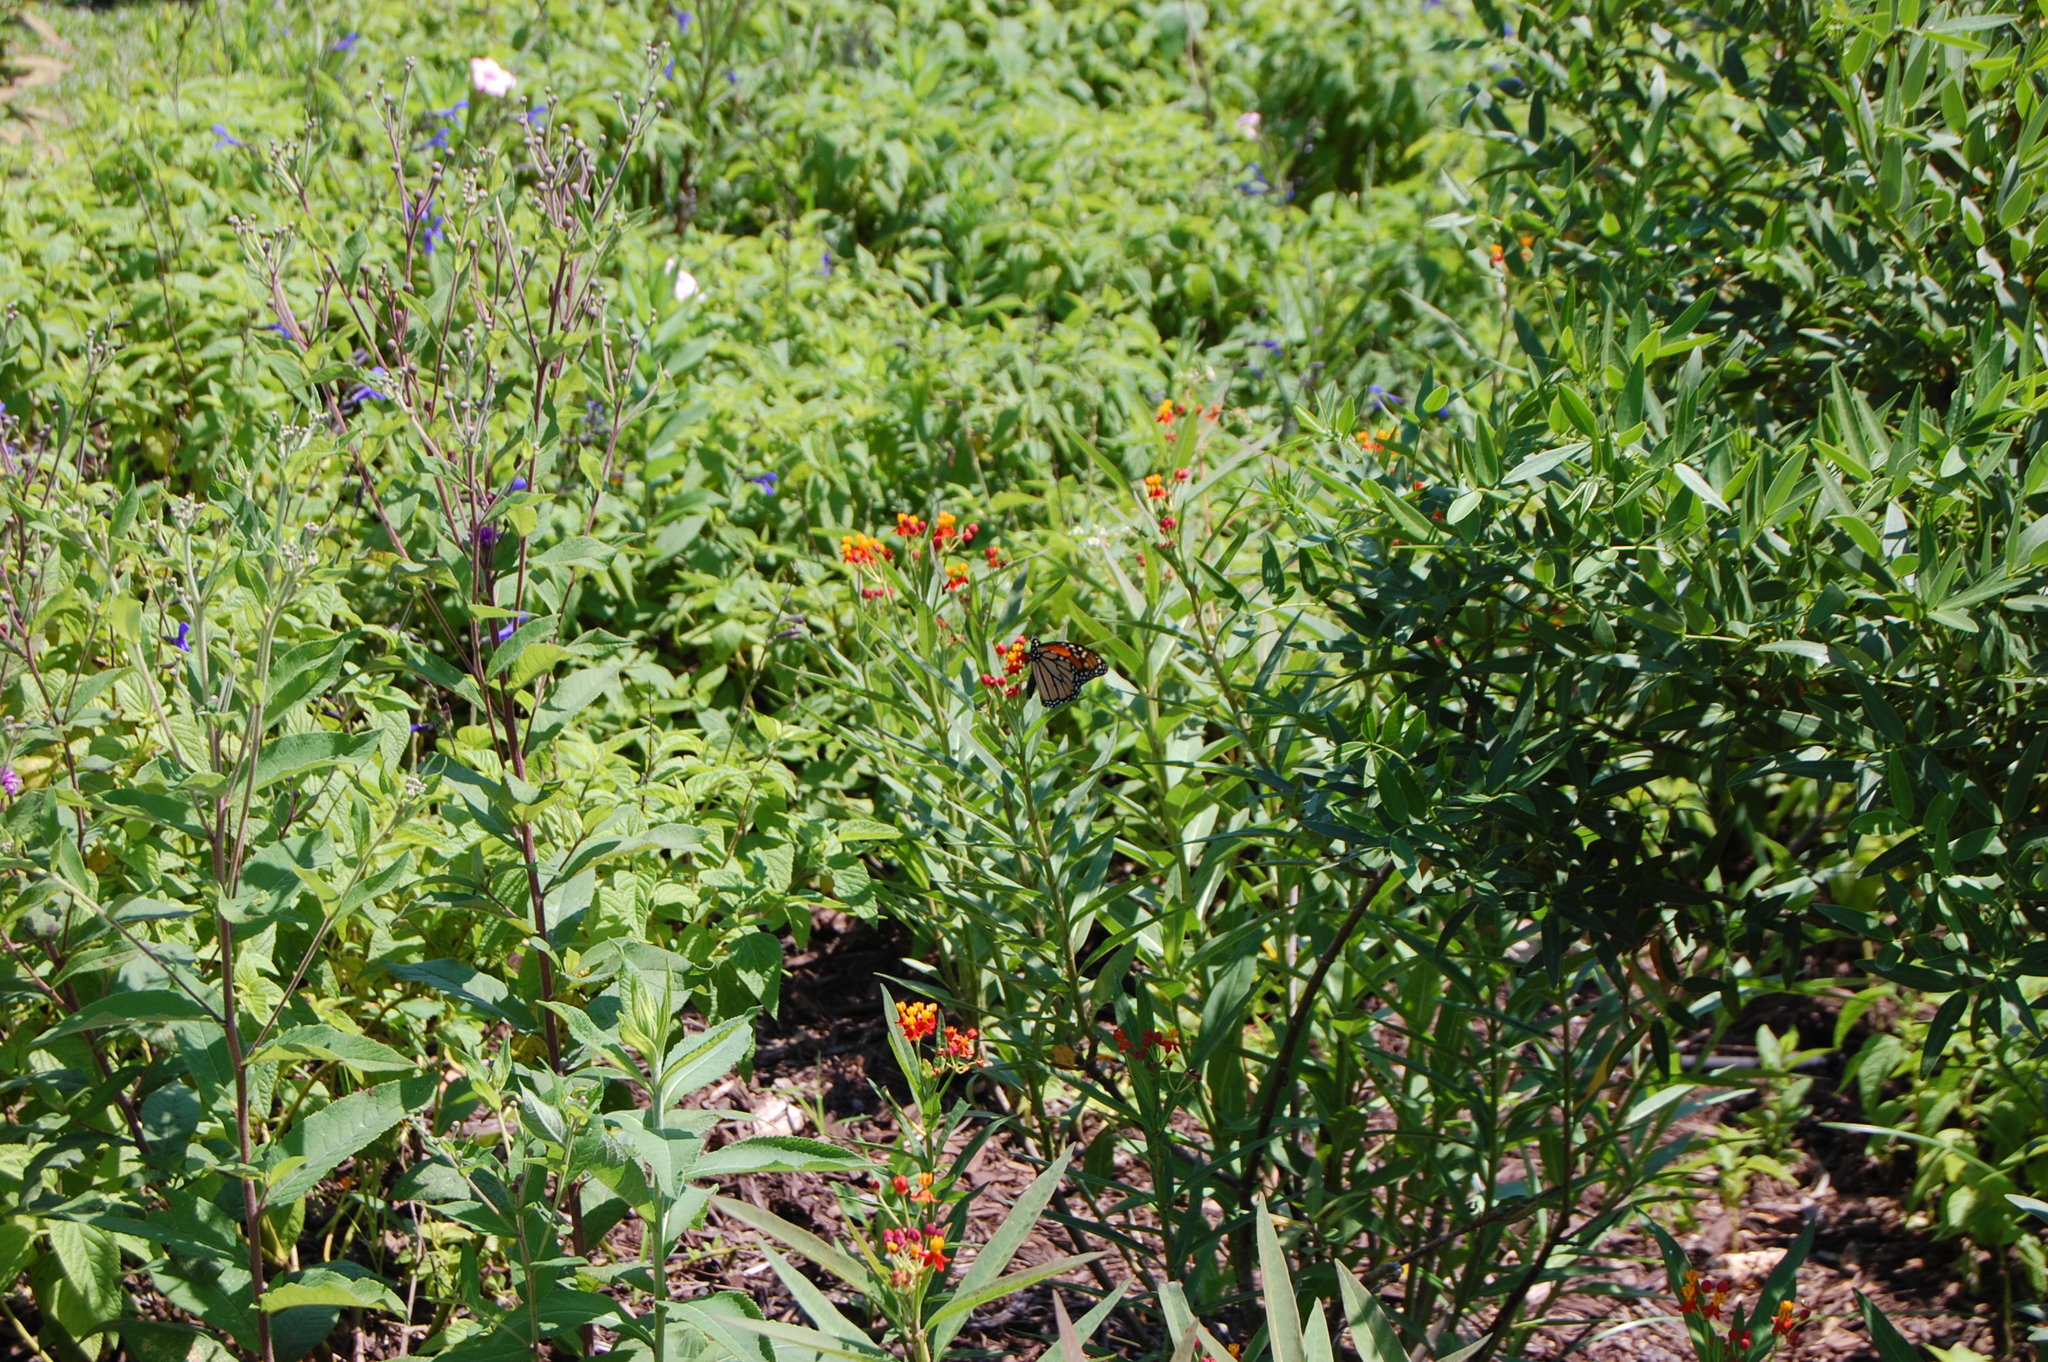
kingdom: Animalia
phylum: Arthropoda
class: Insecta
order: Lepidoptera
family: Nymphalidae
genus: Danaus
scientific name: Danaus plexippus
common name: Monarch
